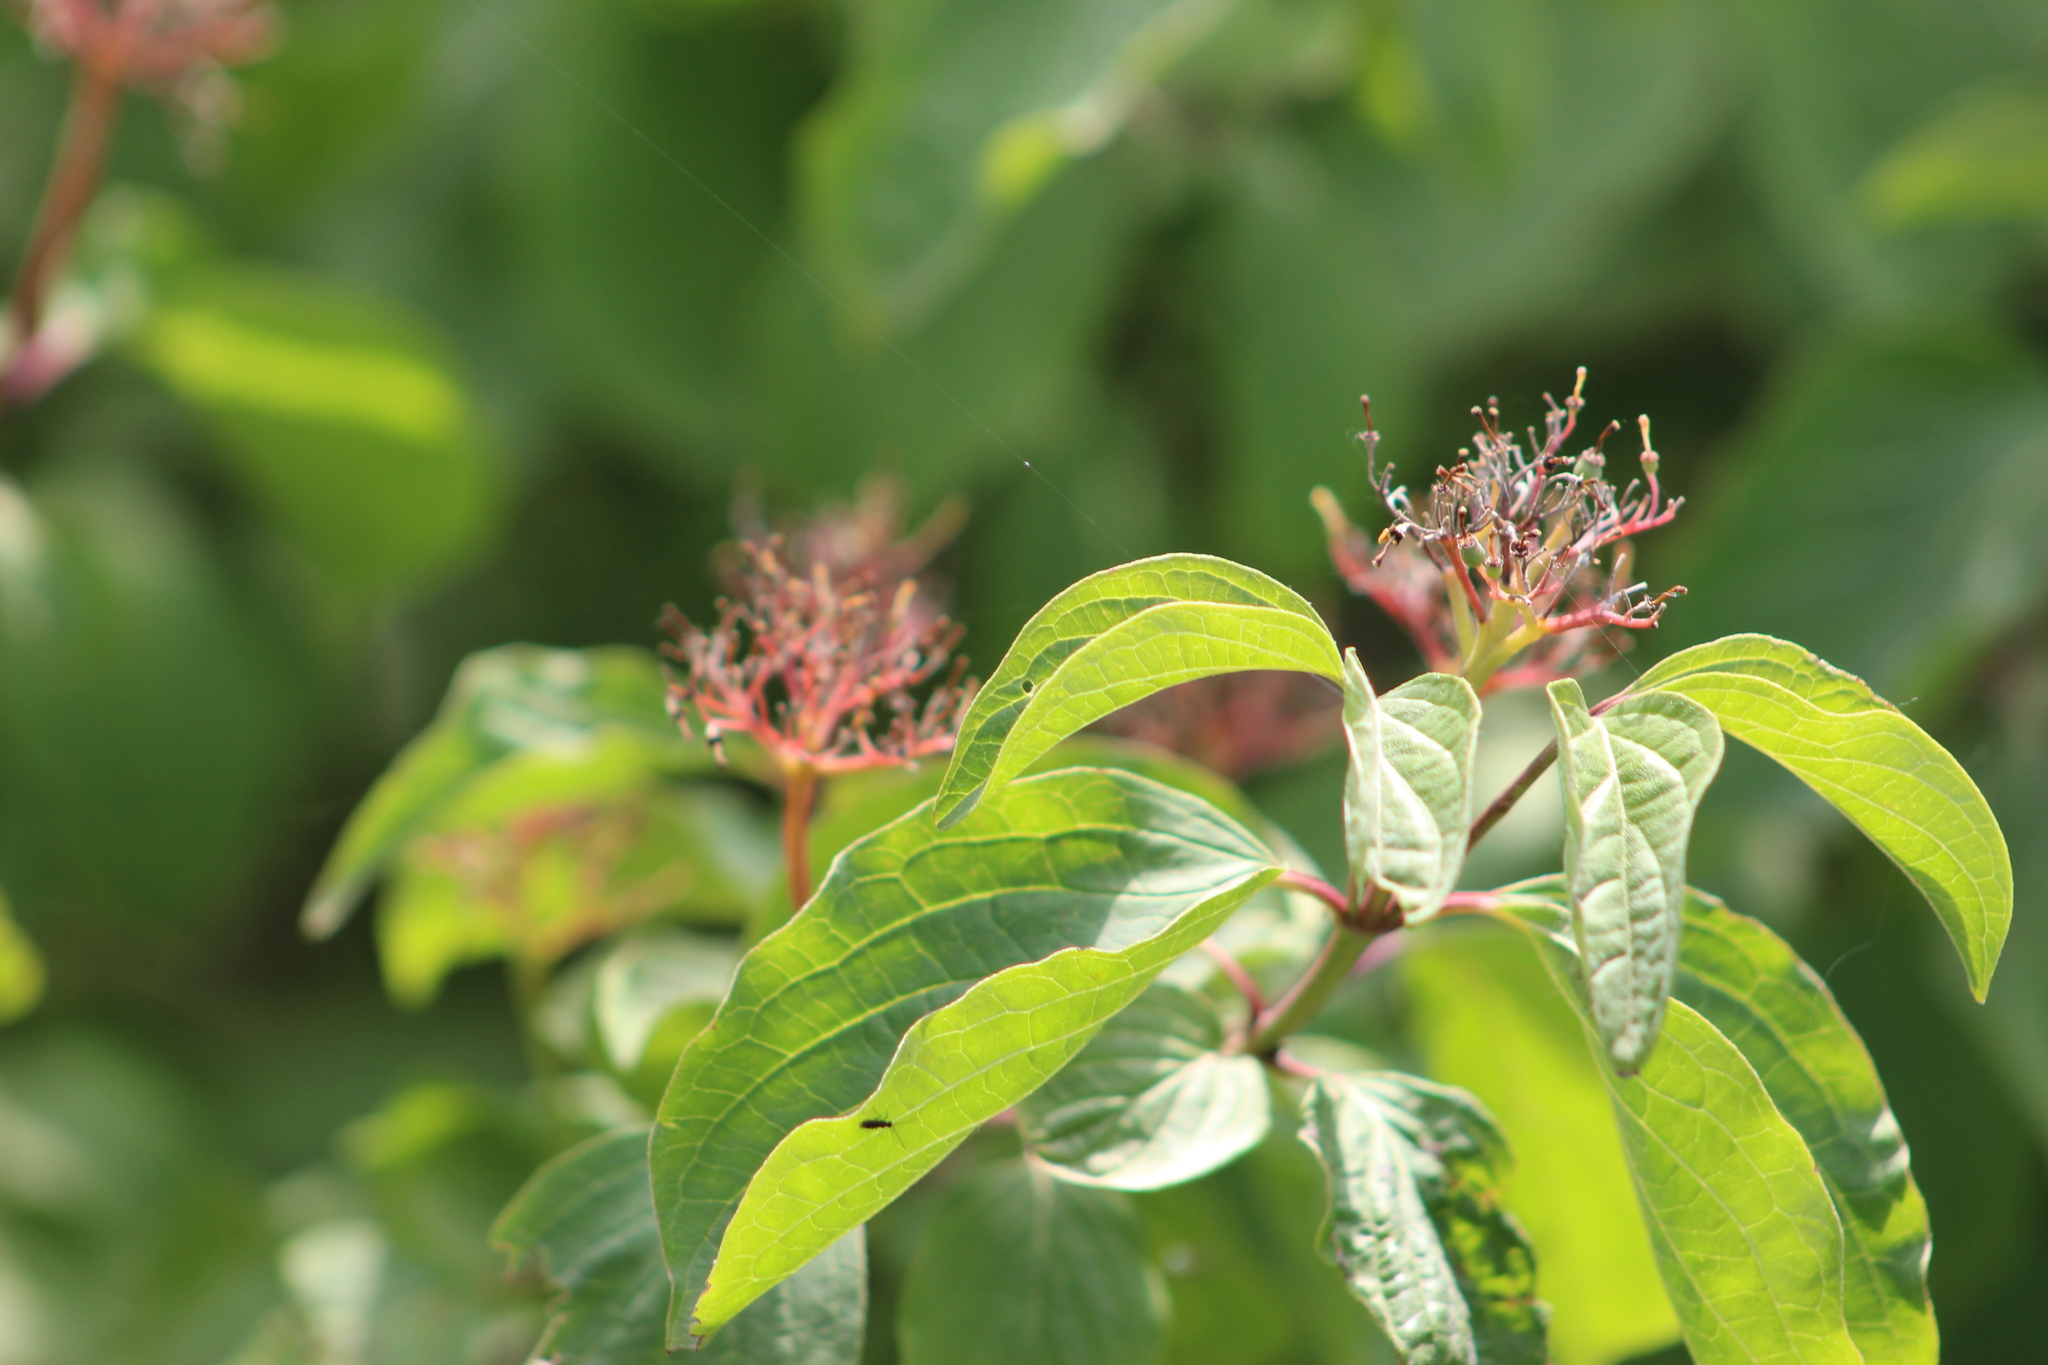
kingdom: Plantae
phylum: Tracheophyta
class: Magnoliopsida
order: Cornales
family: Cornaceae
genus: Cornus
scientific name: Cornus sanguinea
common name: Dogwood
